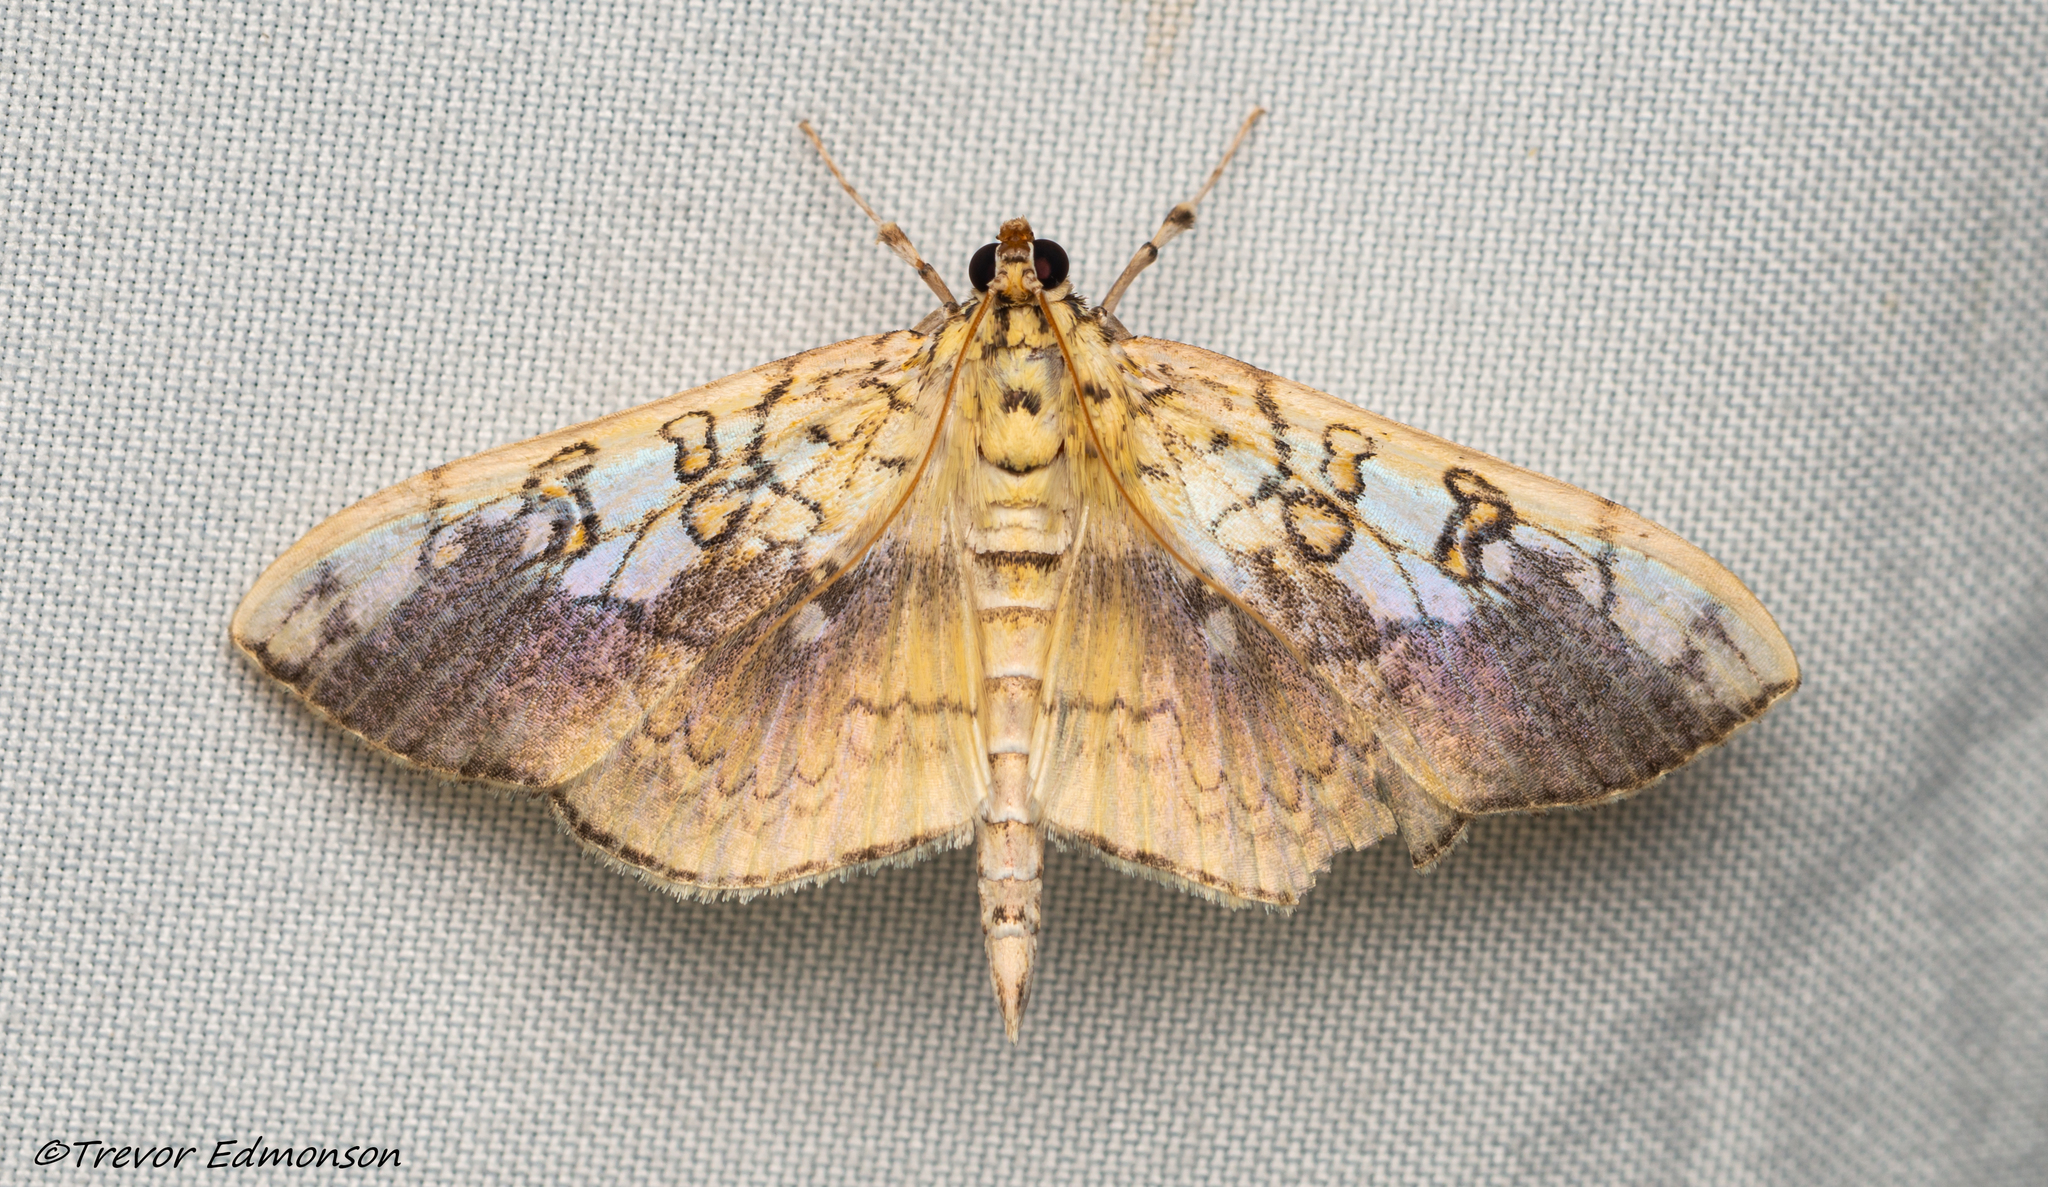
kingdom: Animalia
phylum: Arthropoda
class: Insecta
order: Lepidoptera
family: Crambidae
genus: Pantographa
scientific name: Pantographa limata
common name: Basswood leafroller moth
